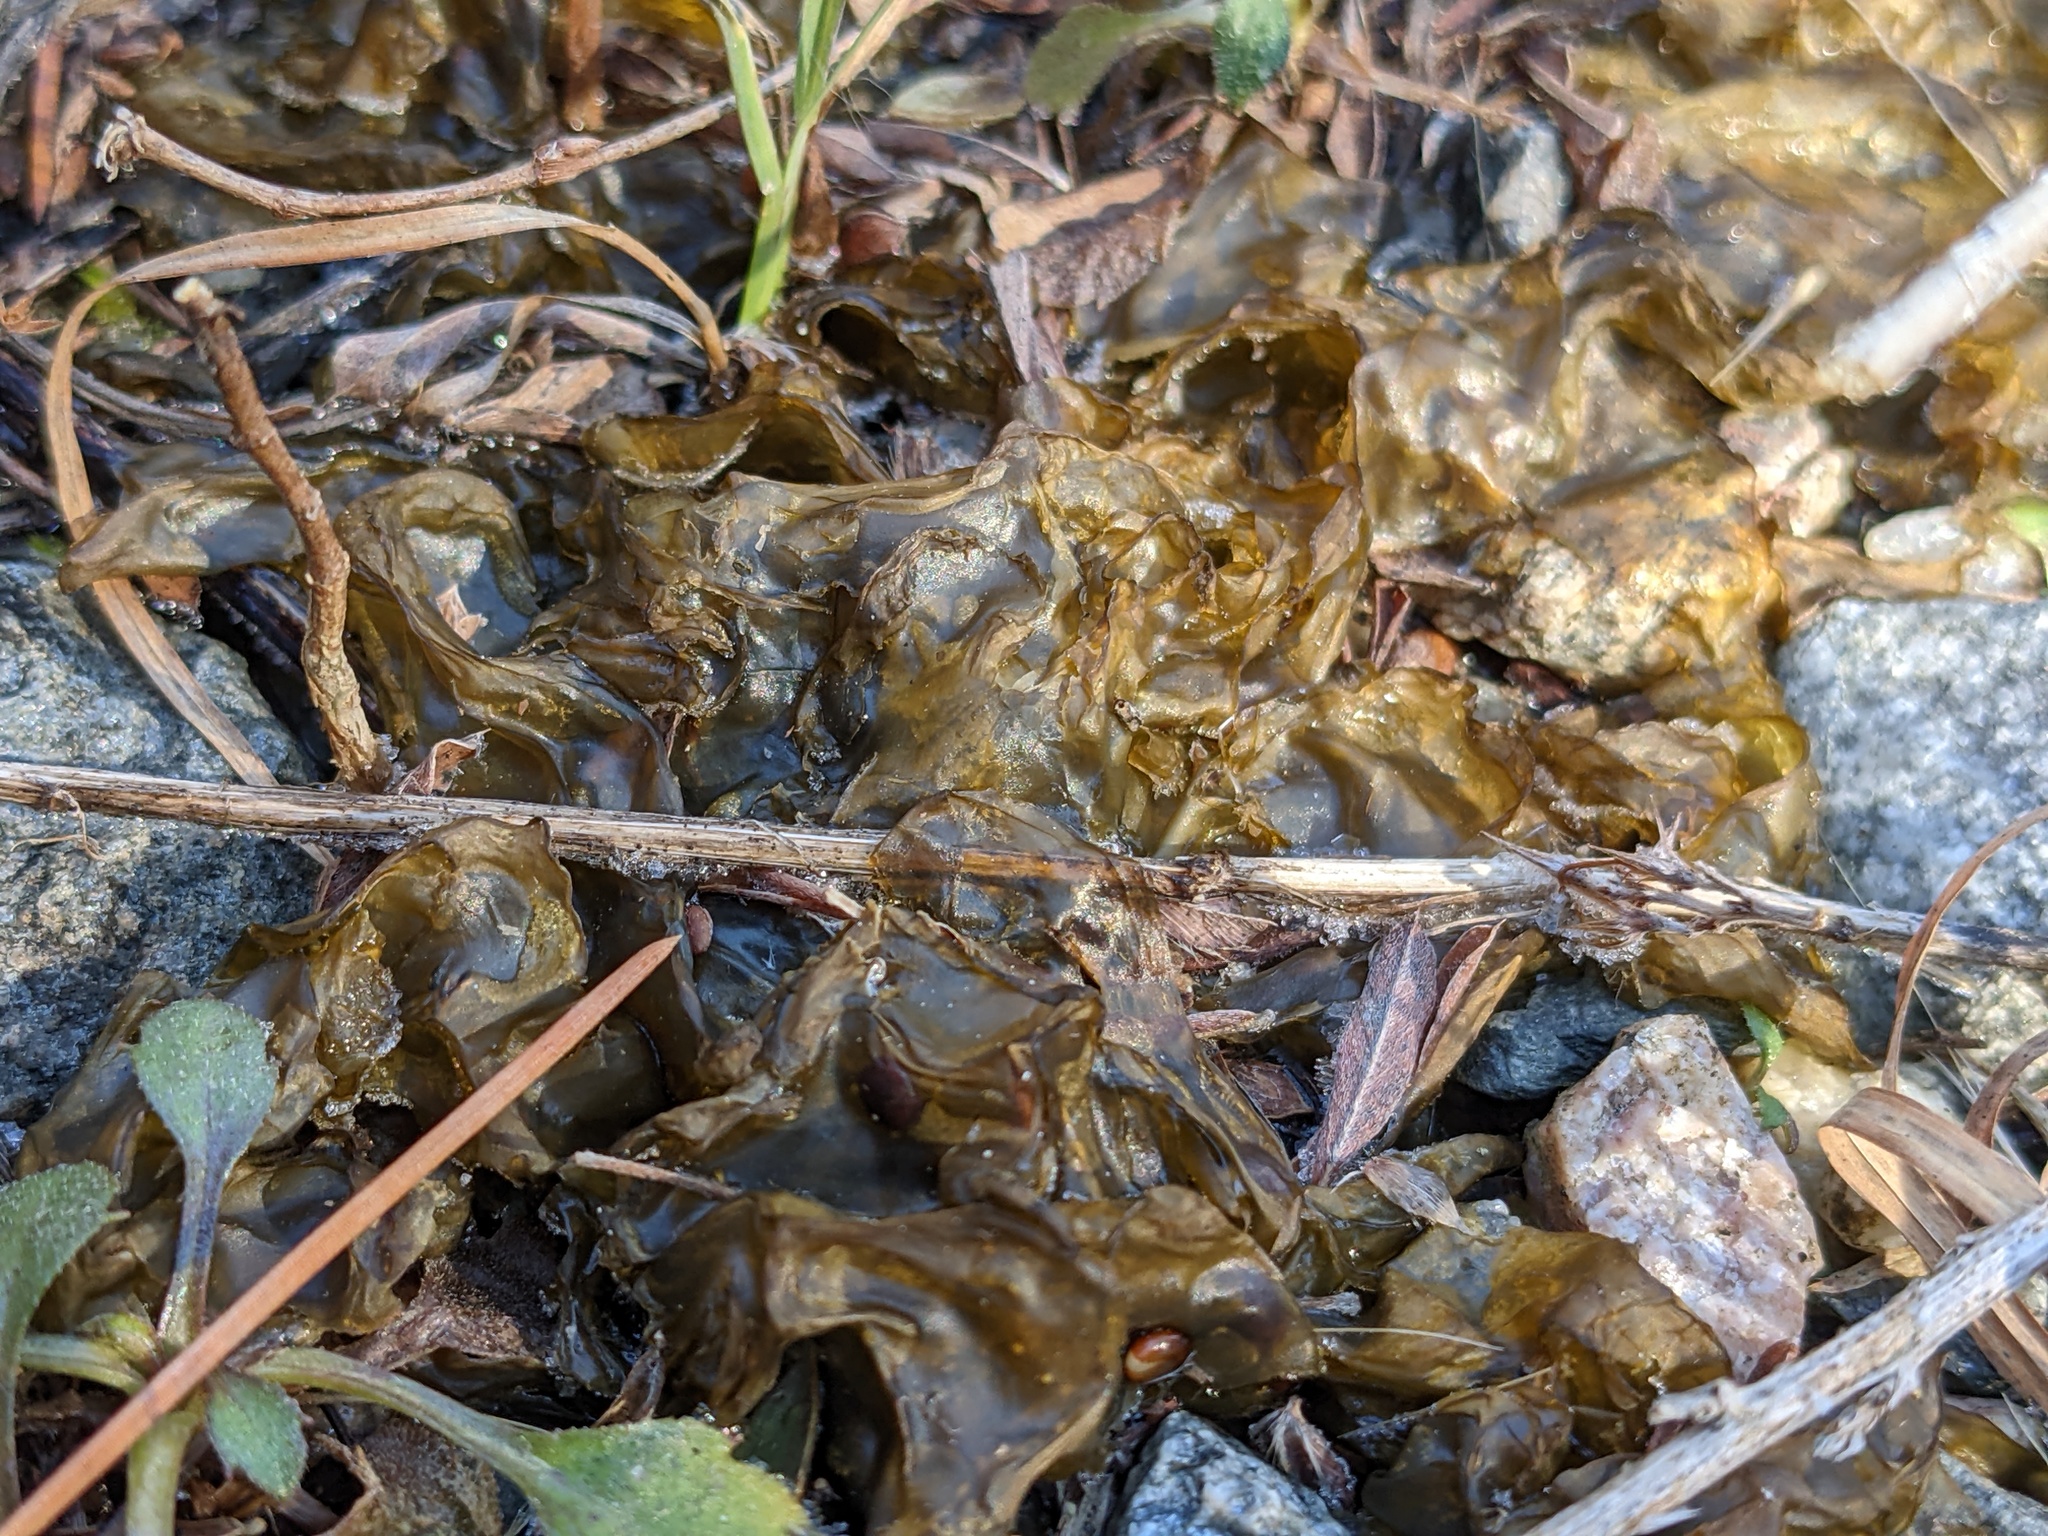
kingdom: Bacteria
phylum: Cyanobacteria
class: Cyanobacteriia
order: Cyanobacteriales
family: Nostocaceae
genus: Nostoc
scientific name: Nostoc commune
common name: Star jelly
